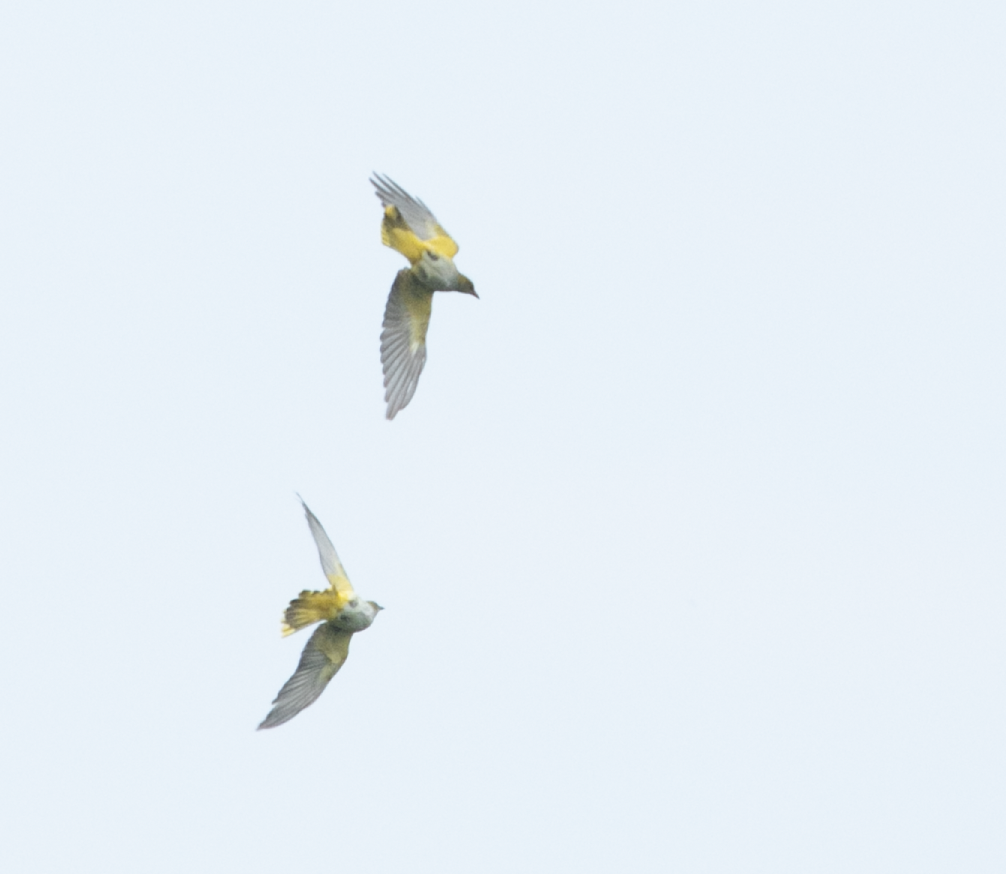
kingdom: Animalia
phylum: Chordata
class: Aves
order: Passeriformes
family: Oriolidae
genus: Oriolus
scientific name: Oriolus oriolus
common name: Eurasian golden oriole
